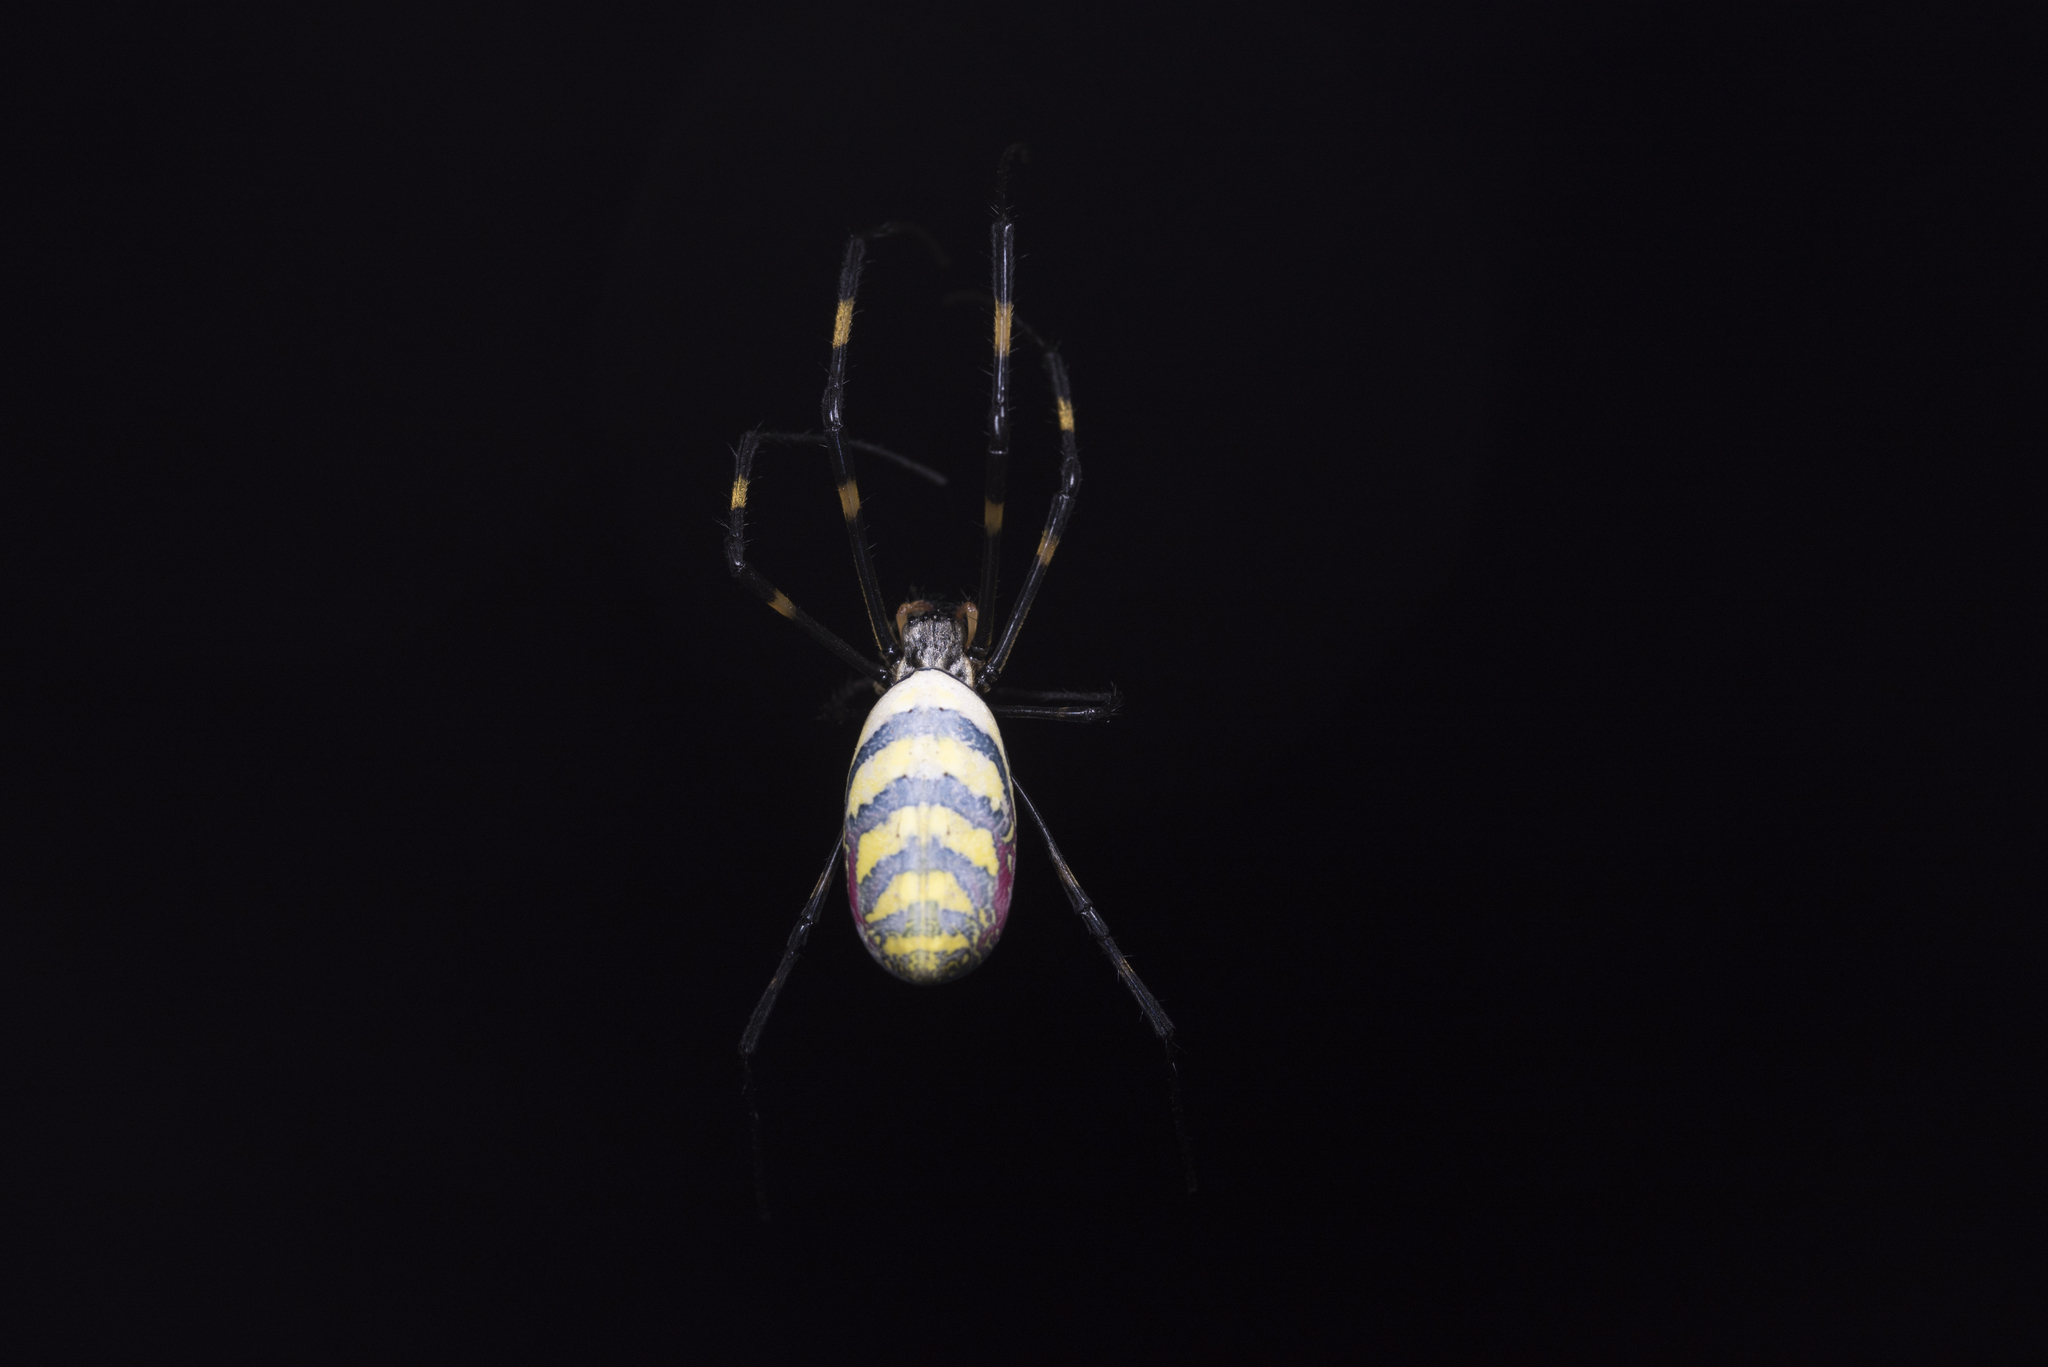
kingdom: Animalia
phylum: Arthropoda
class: Arachnida
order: Araneae
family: Araneidae
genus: Trichonephila
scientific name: Trichonephila clavata
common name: Jorō spider
